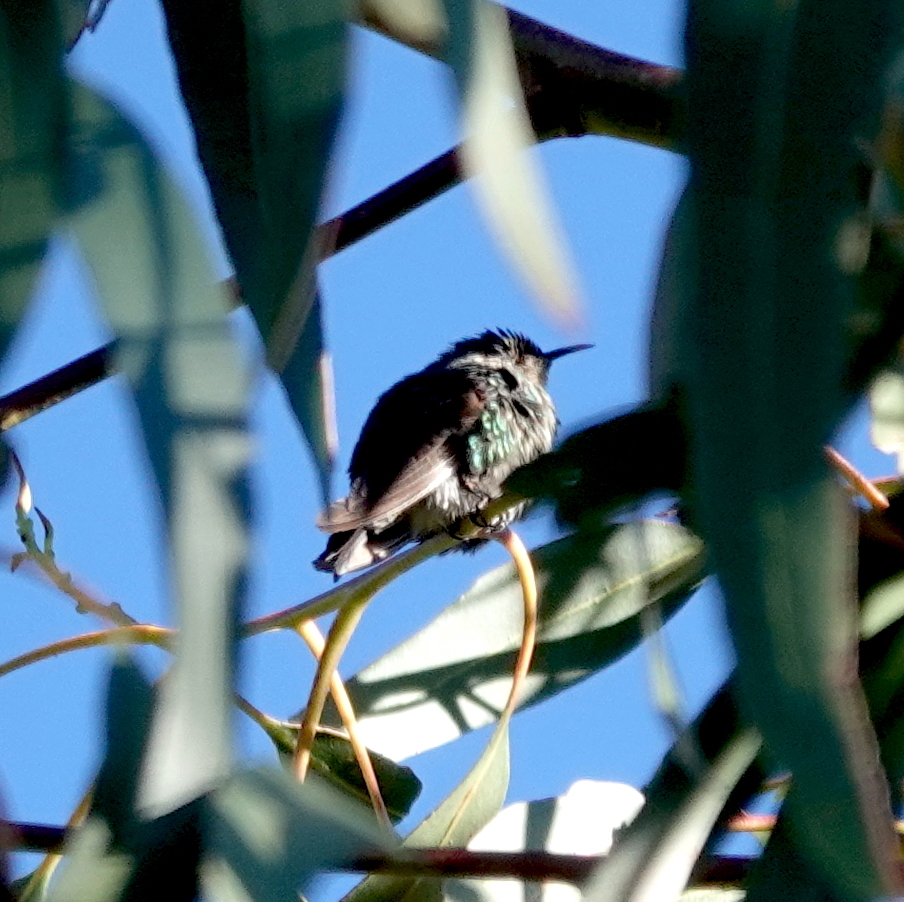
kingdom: Animalia
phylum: Chordata
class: Aves
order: Apodiformes
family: Trochilidae
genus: Ramphomicron
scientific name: Ramphomicron dorsale
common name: Black-backed thornbill
